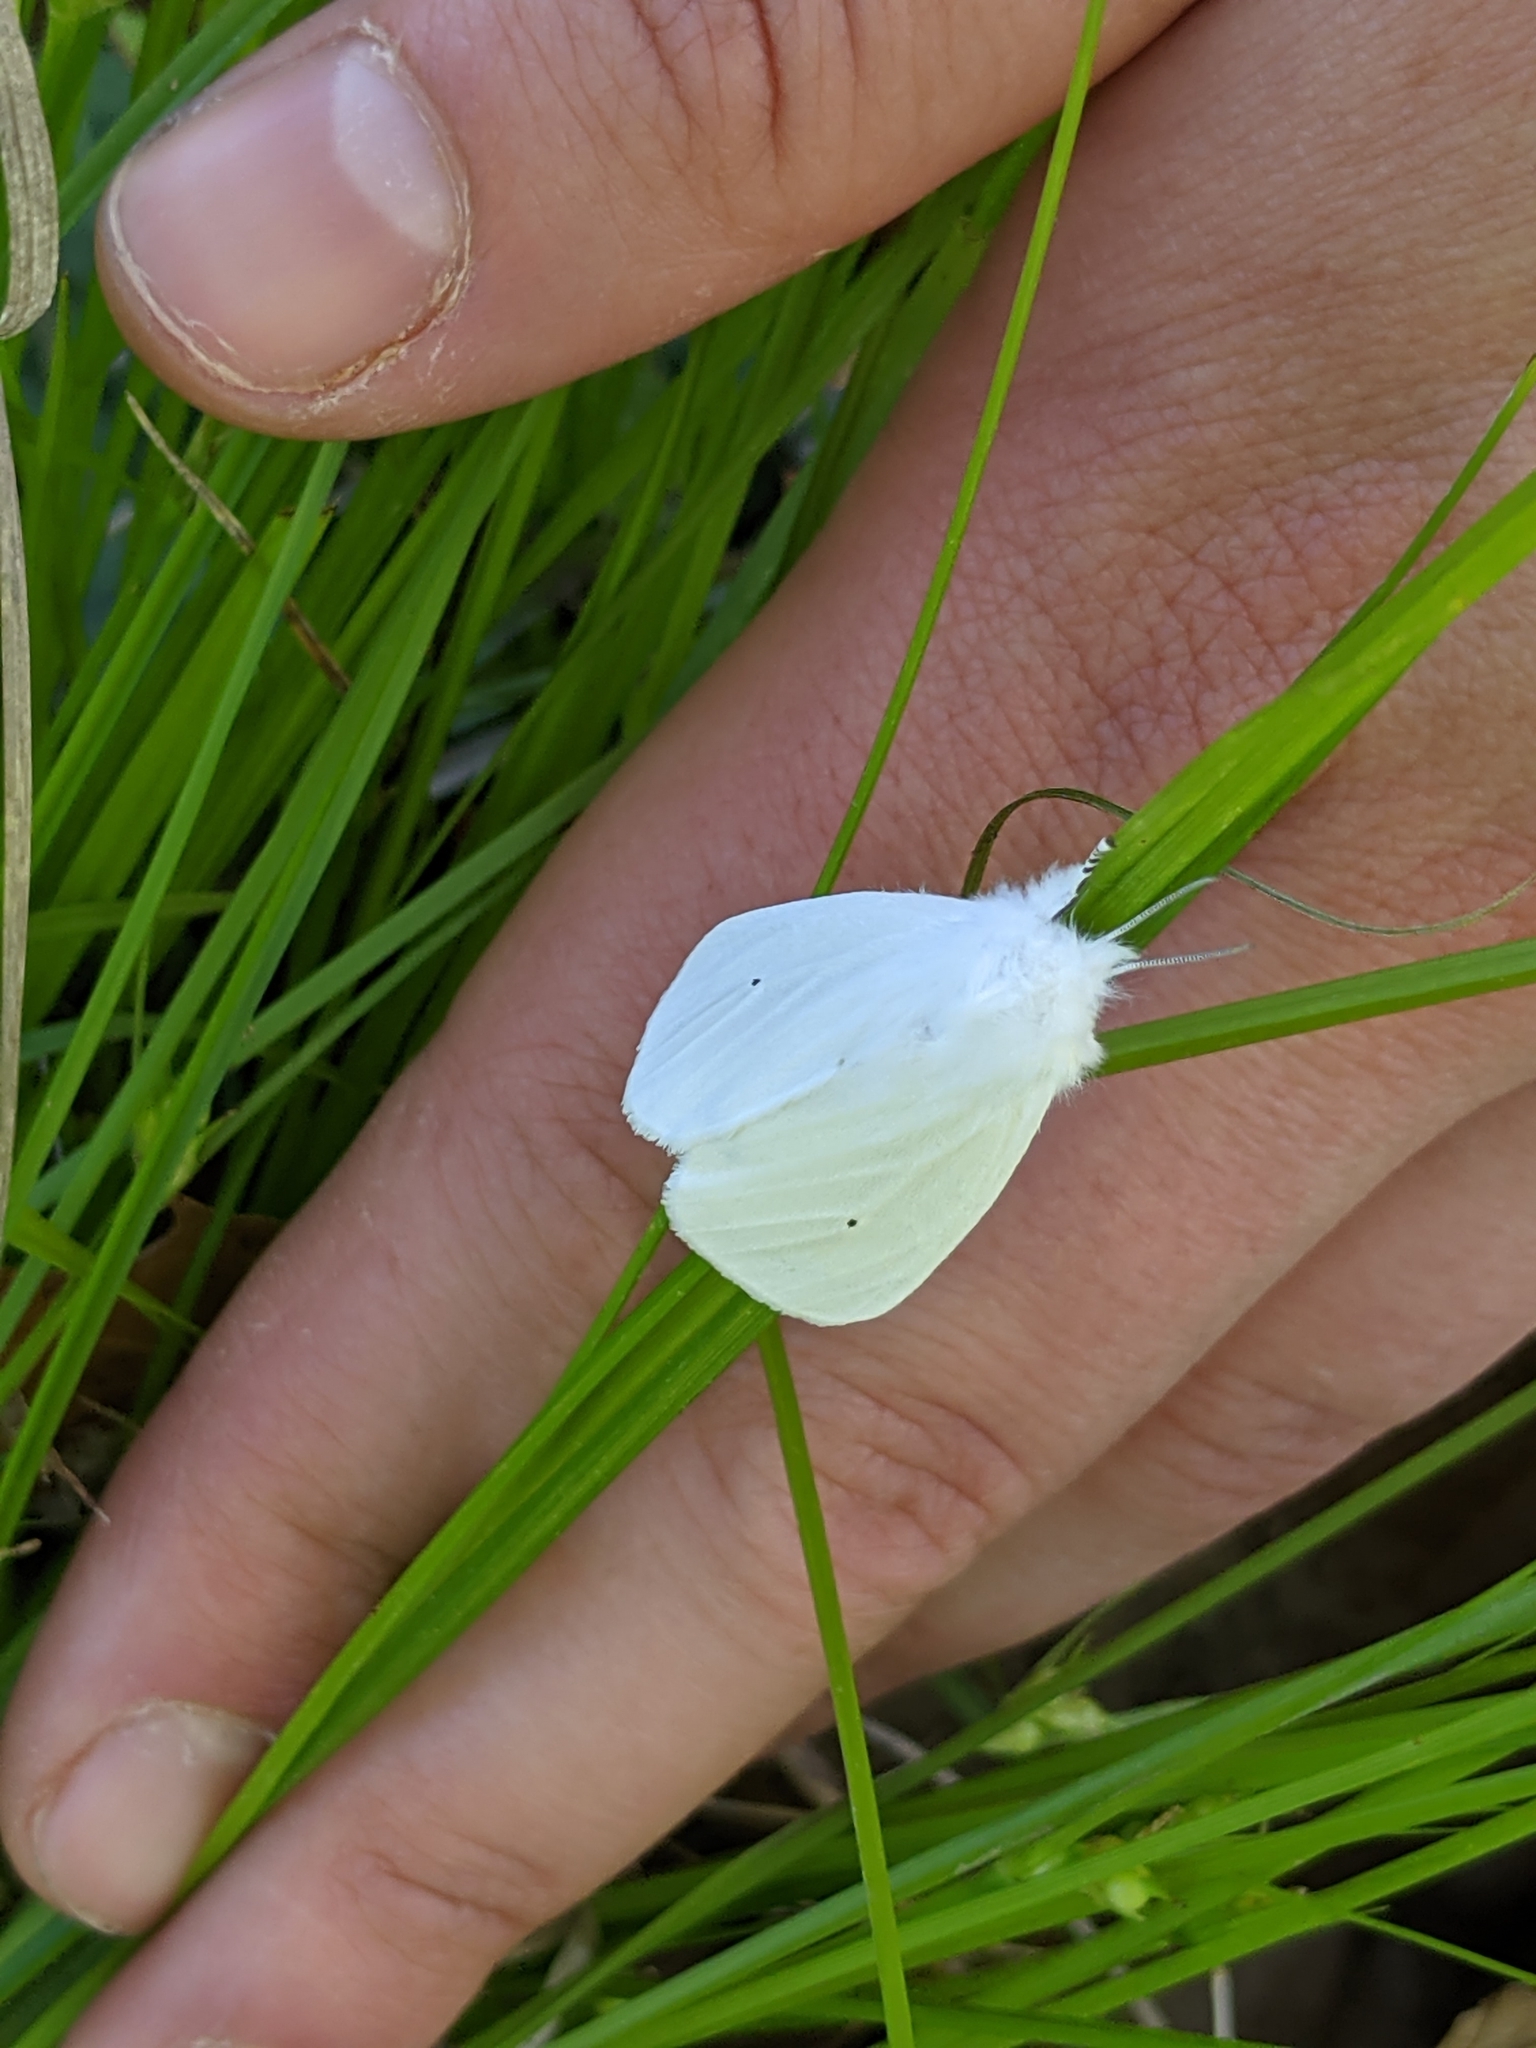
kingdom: Animalia
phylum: Arthropoda
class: Insecta
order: Lepidoptera
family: Erebidae
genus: Spilosoma
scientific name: Spilosoma virginica
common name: Virginia tiger moth
